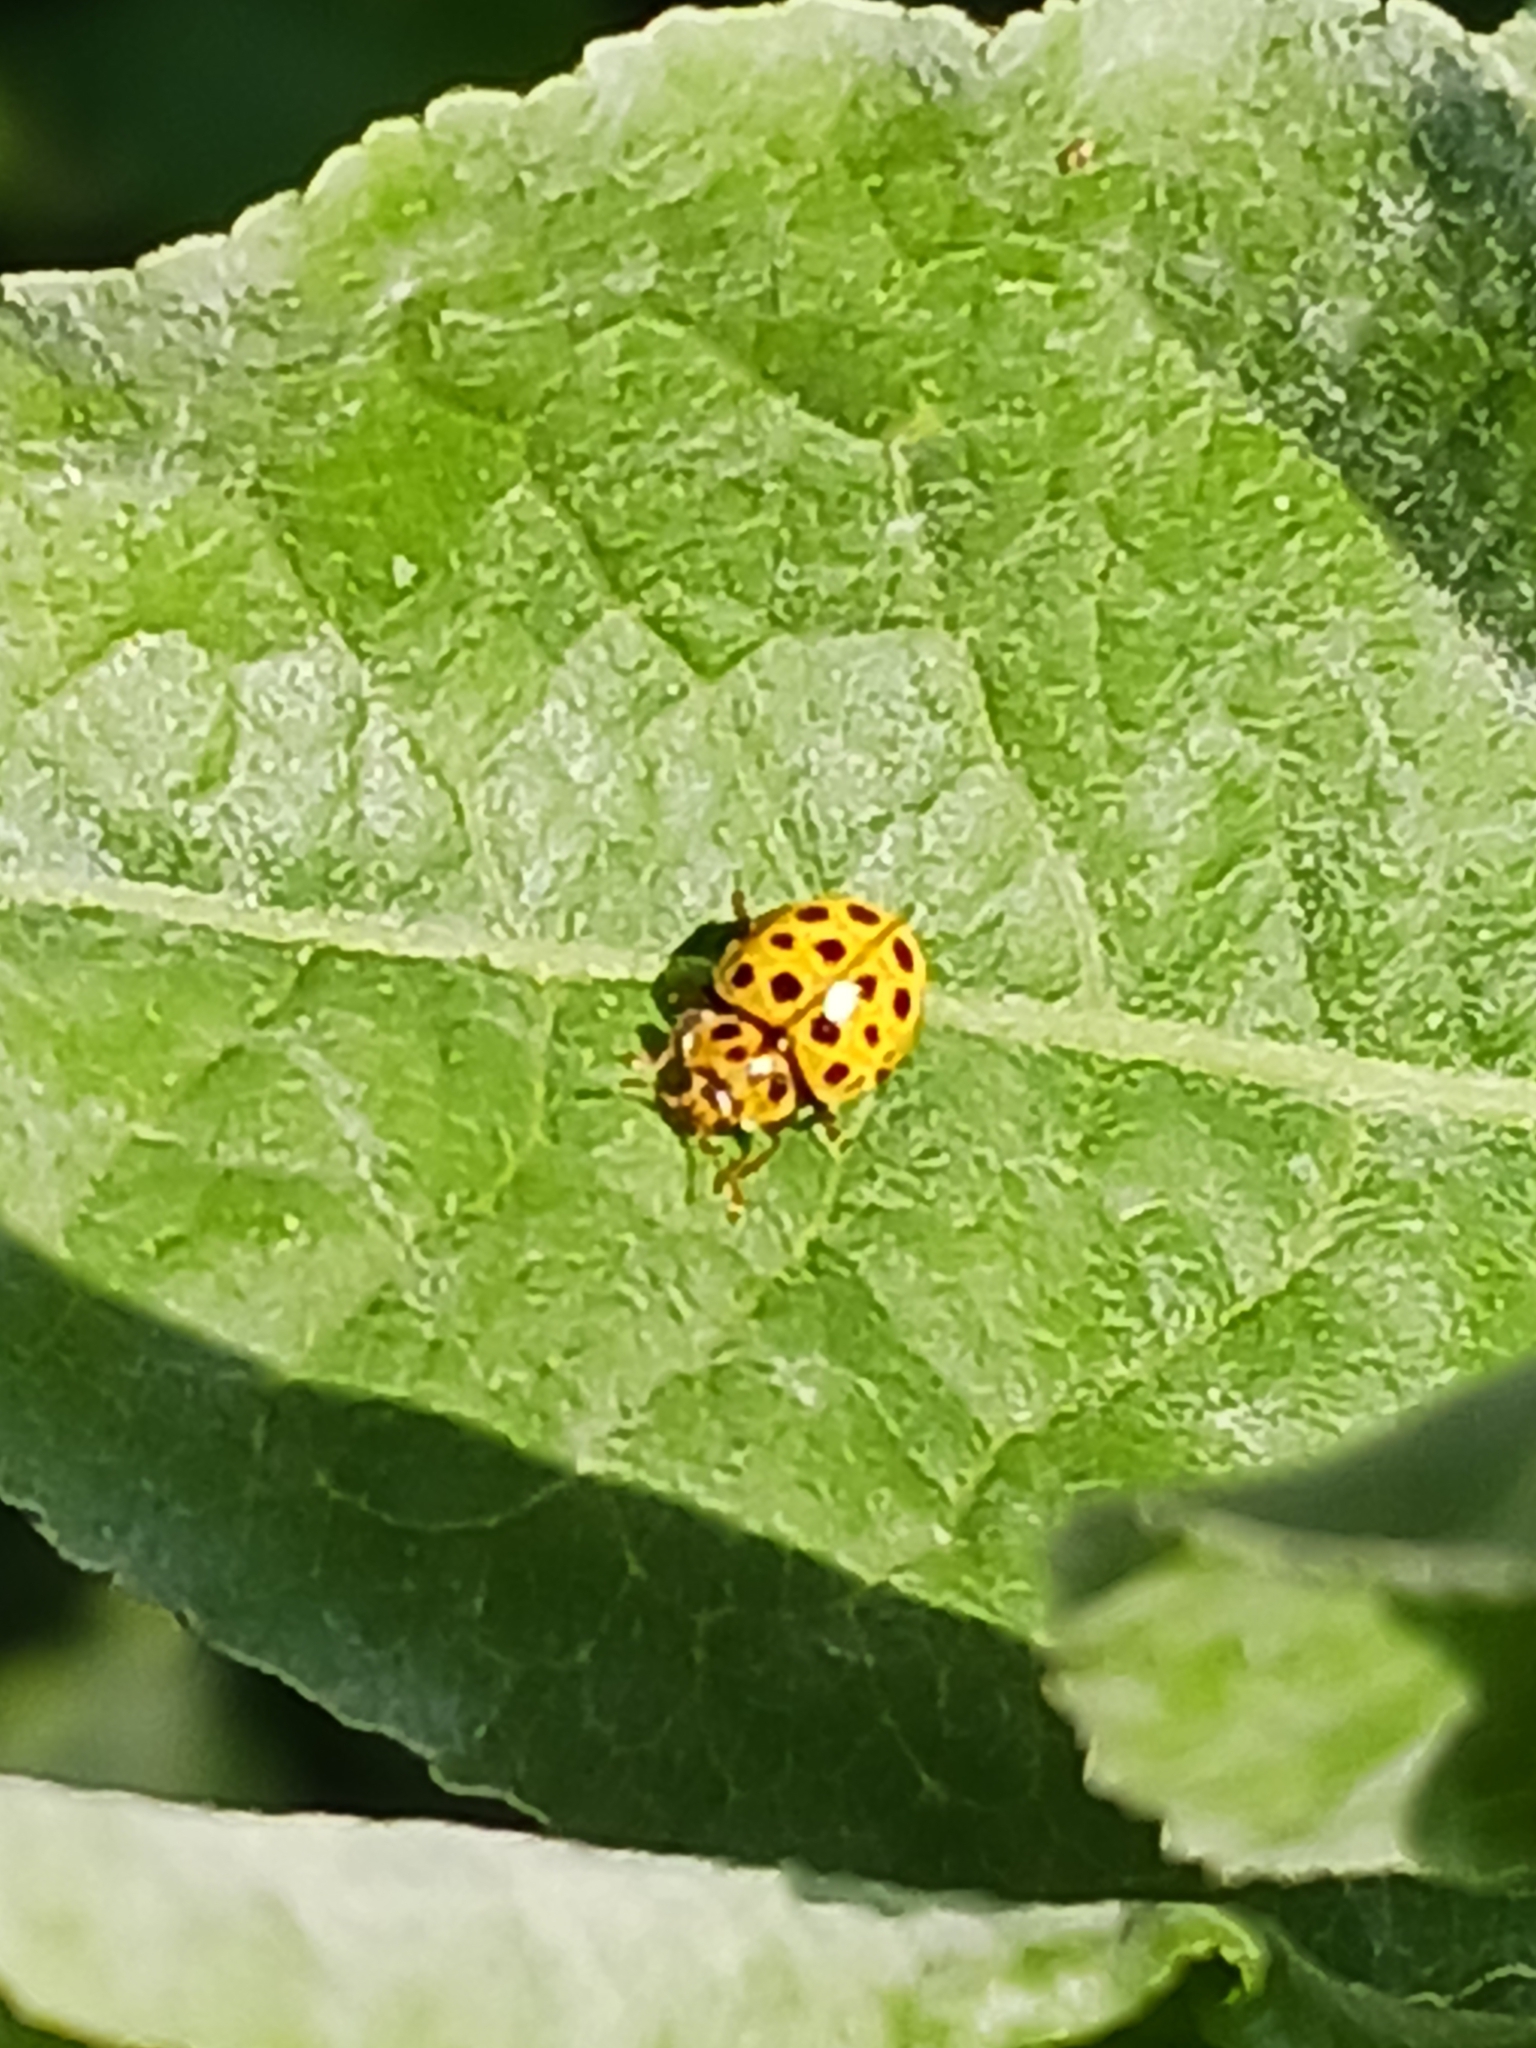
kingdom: Animalia
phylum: Arthropoda
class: Insecta
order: Coleoptera
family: Coccinellidae
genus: Psyllobora
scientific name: Psyllobora vigintiduopunctata
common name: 22-spot ladybird
